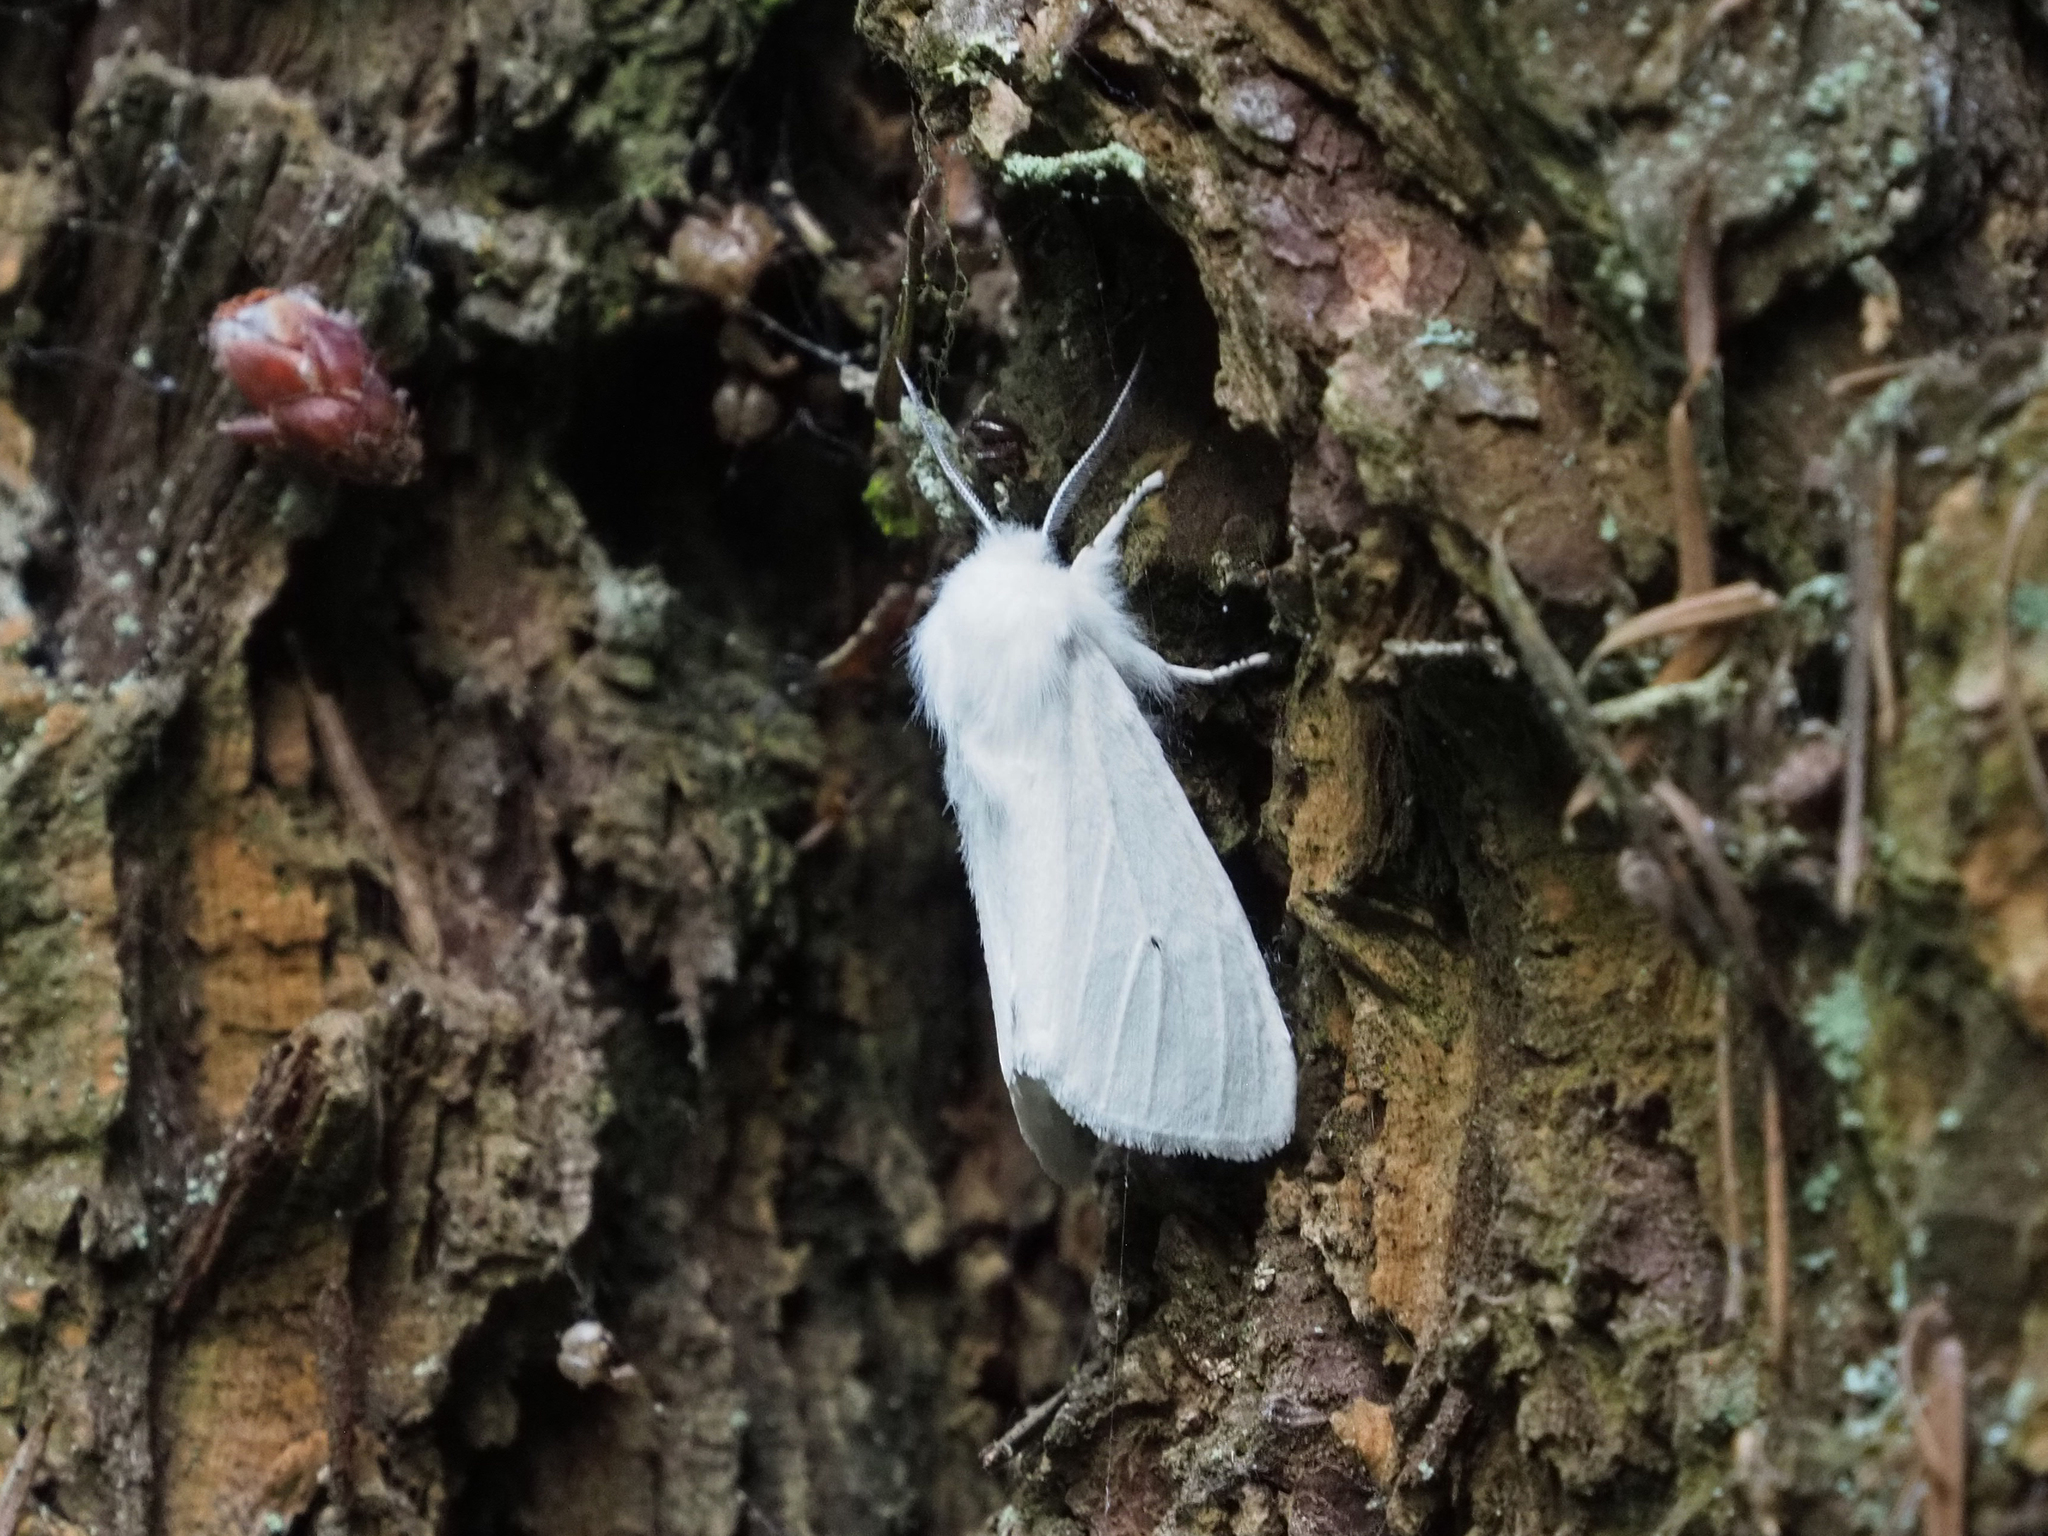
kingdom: Animalia
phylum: Arthropoda
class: Insecta
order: Lepidoptera
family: Erebidae
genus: Spilosoma
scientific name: Spilosoma virginica
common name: Virginia tiger moth
